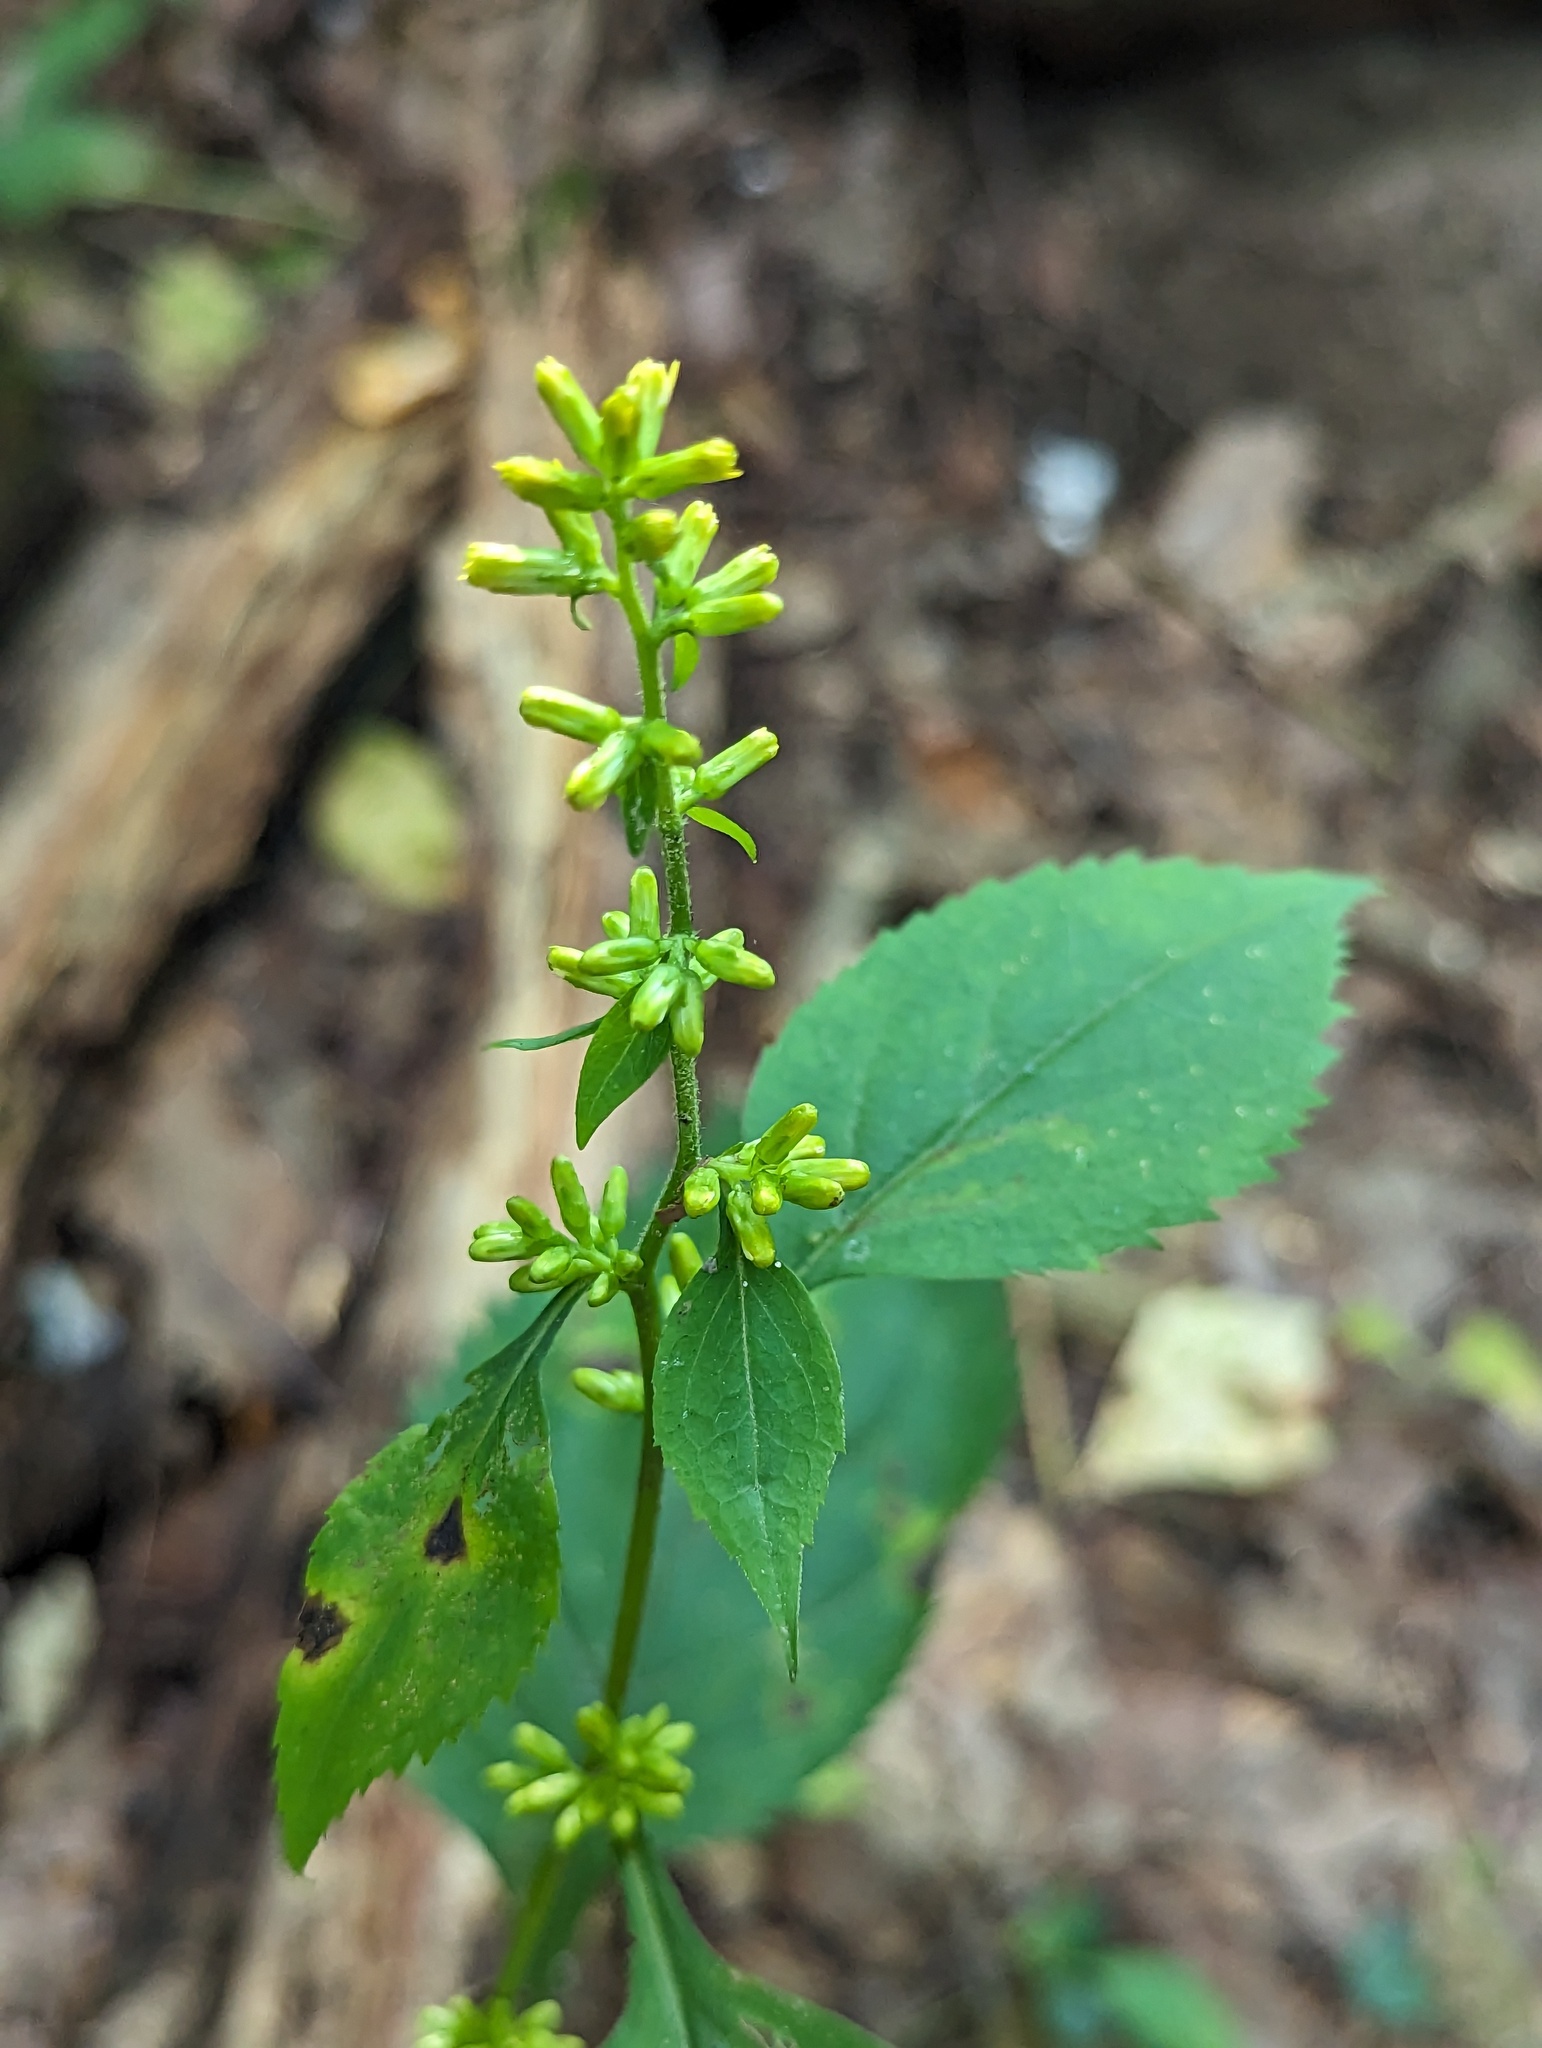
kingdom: Plantae
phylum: Tracheophyta
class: Magnoliopsida
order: Asterales
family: Asteraceae
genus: Solidago
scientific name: Solidago flexicaulis
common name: Zig-zag goldenrod
